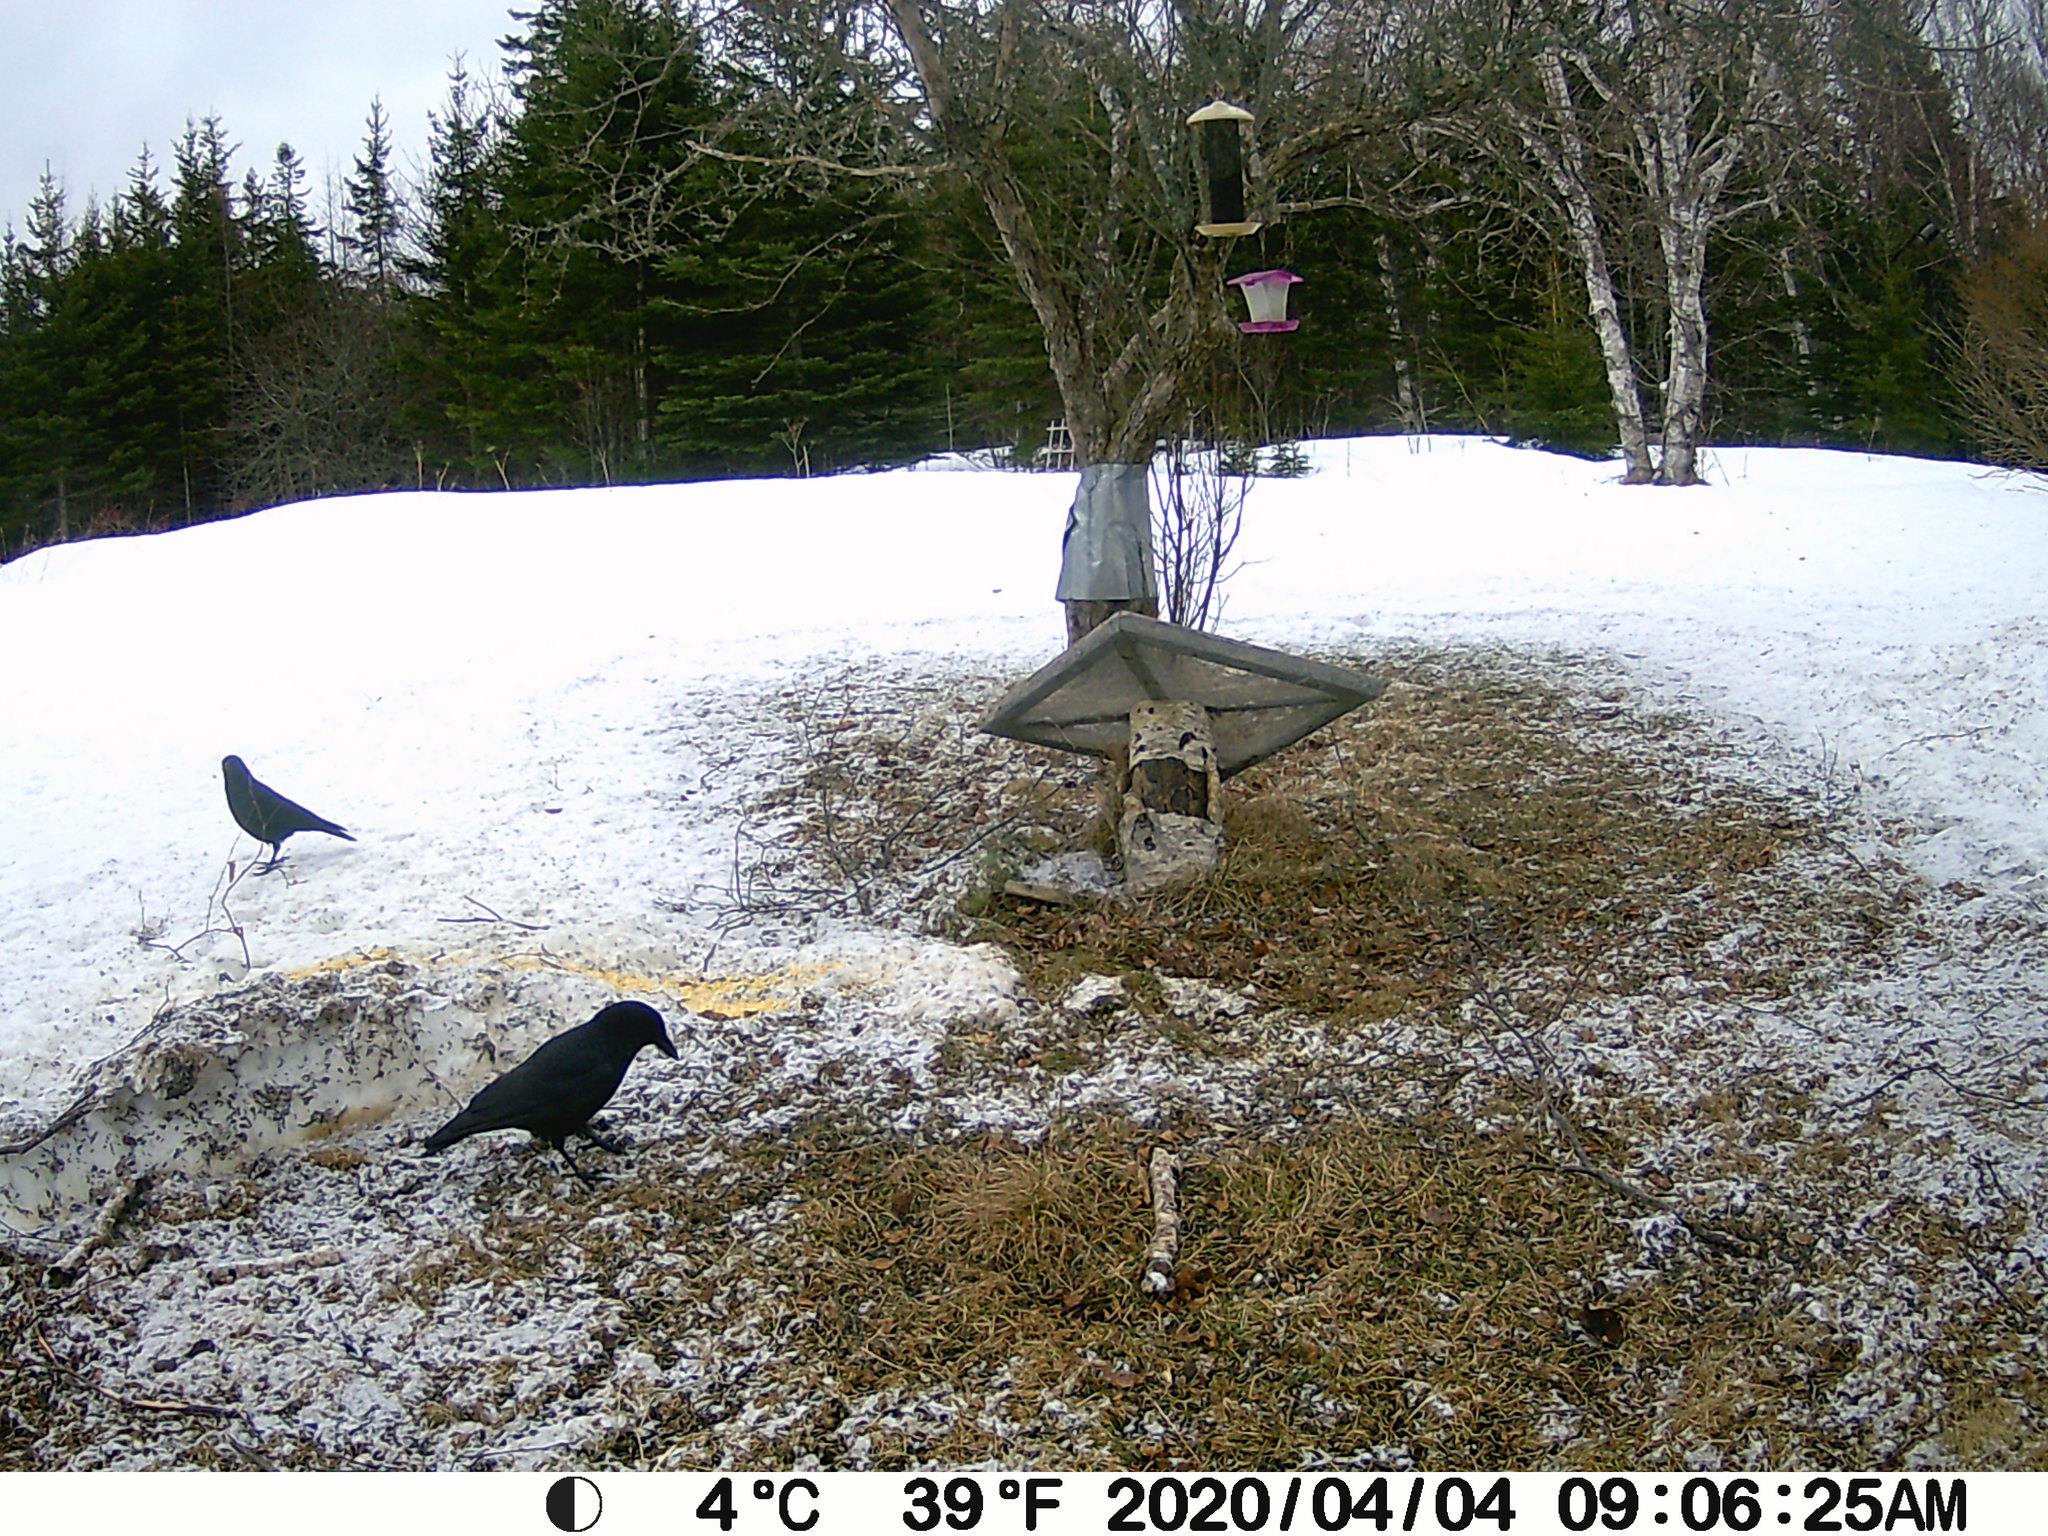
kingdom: Animalia
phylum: Chordata
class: Aves
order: Passeriformes
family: Corvidae
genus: Corvus
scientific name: Corvus brachyrhynchos
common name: American crow
